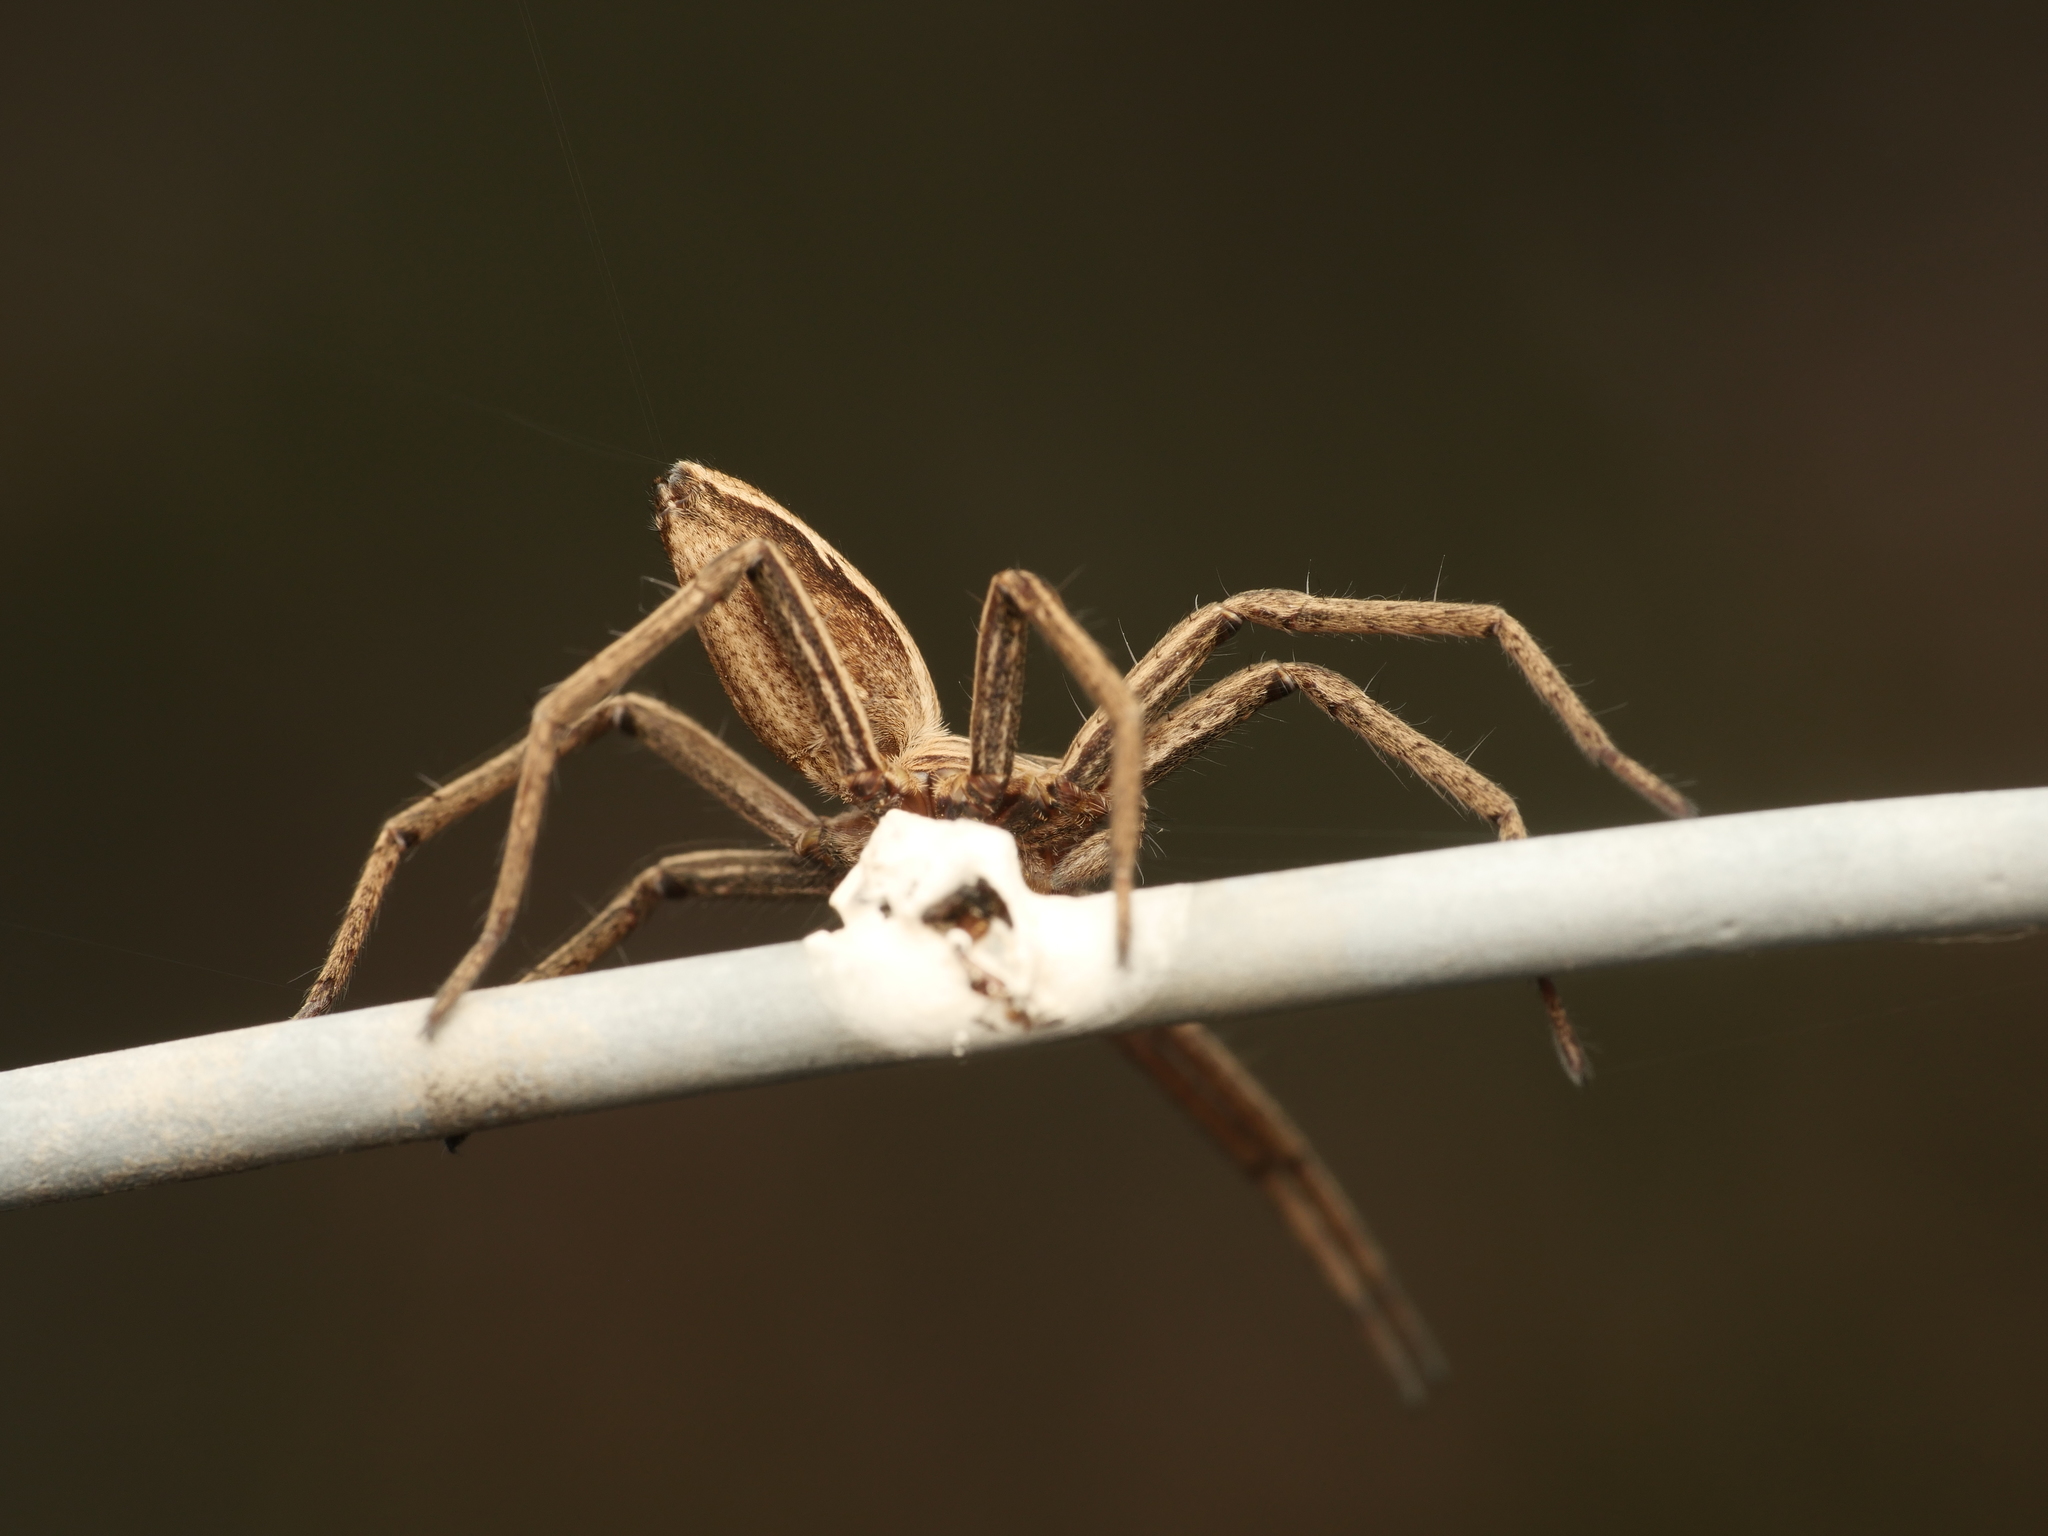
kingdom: Animalia
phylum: Arthropoda
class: Arachnida
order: Araneae
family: Pisauridae
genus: Pisaura
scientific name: Pisaura mirabilis
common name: Tent spider
